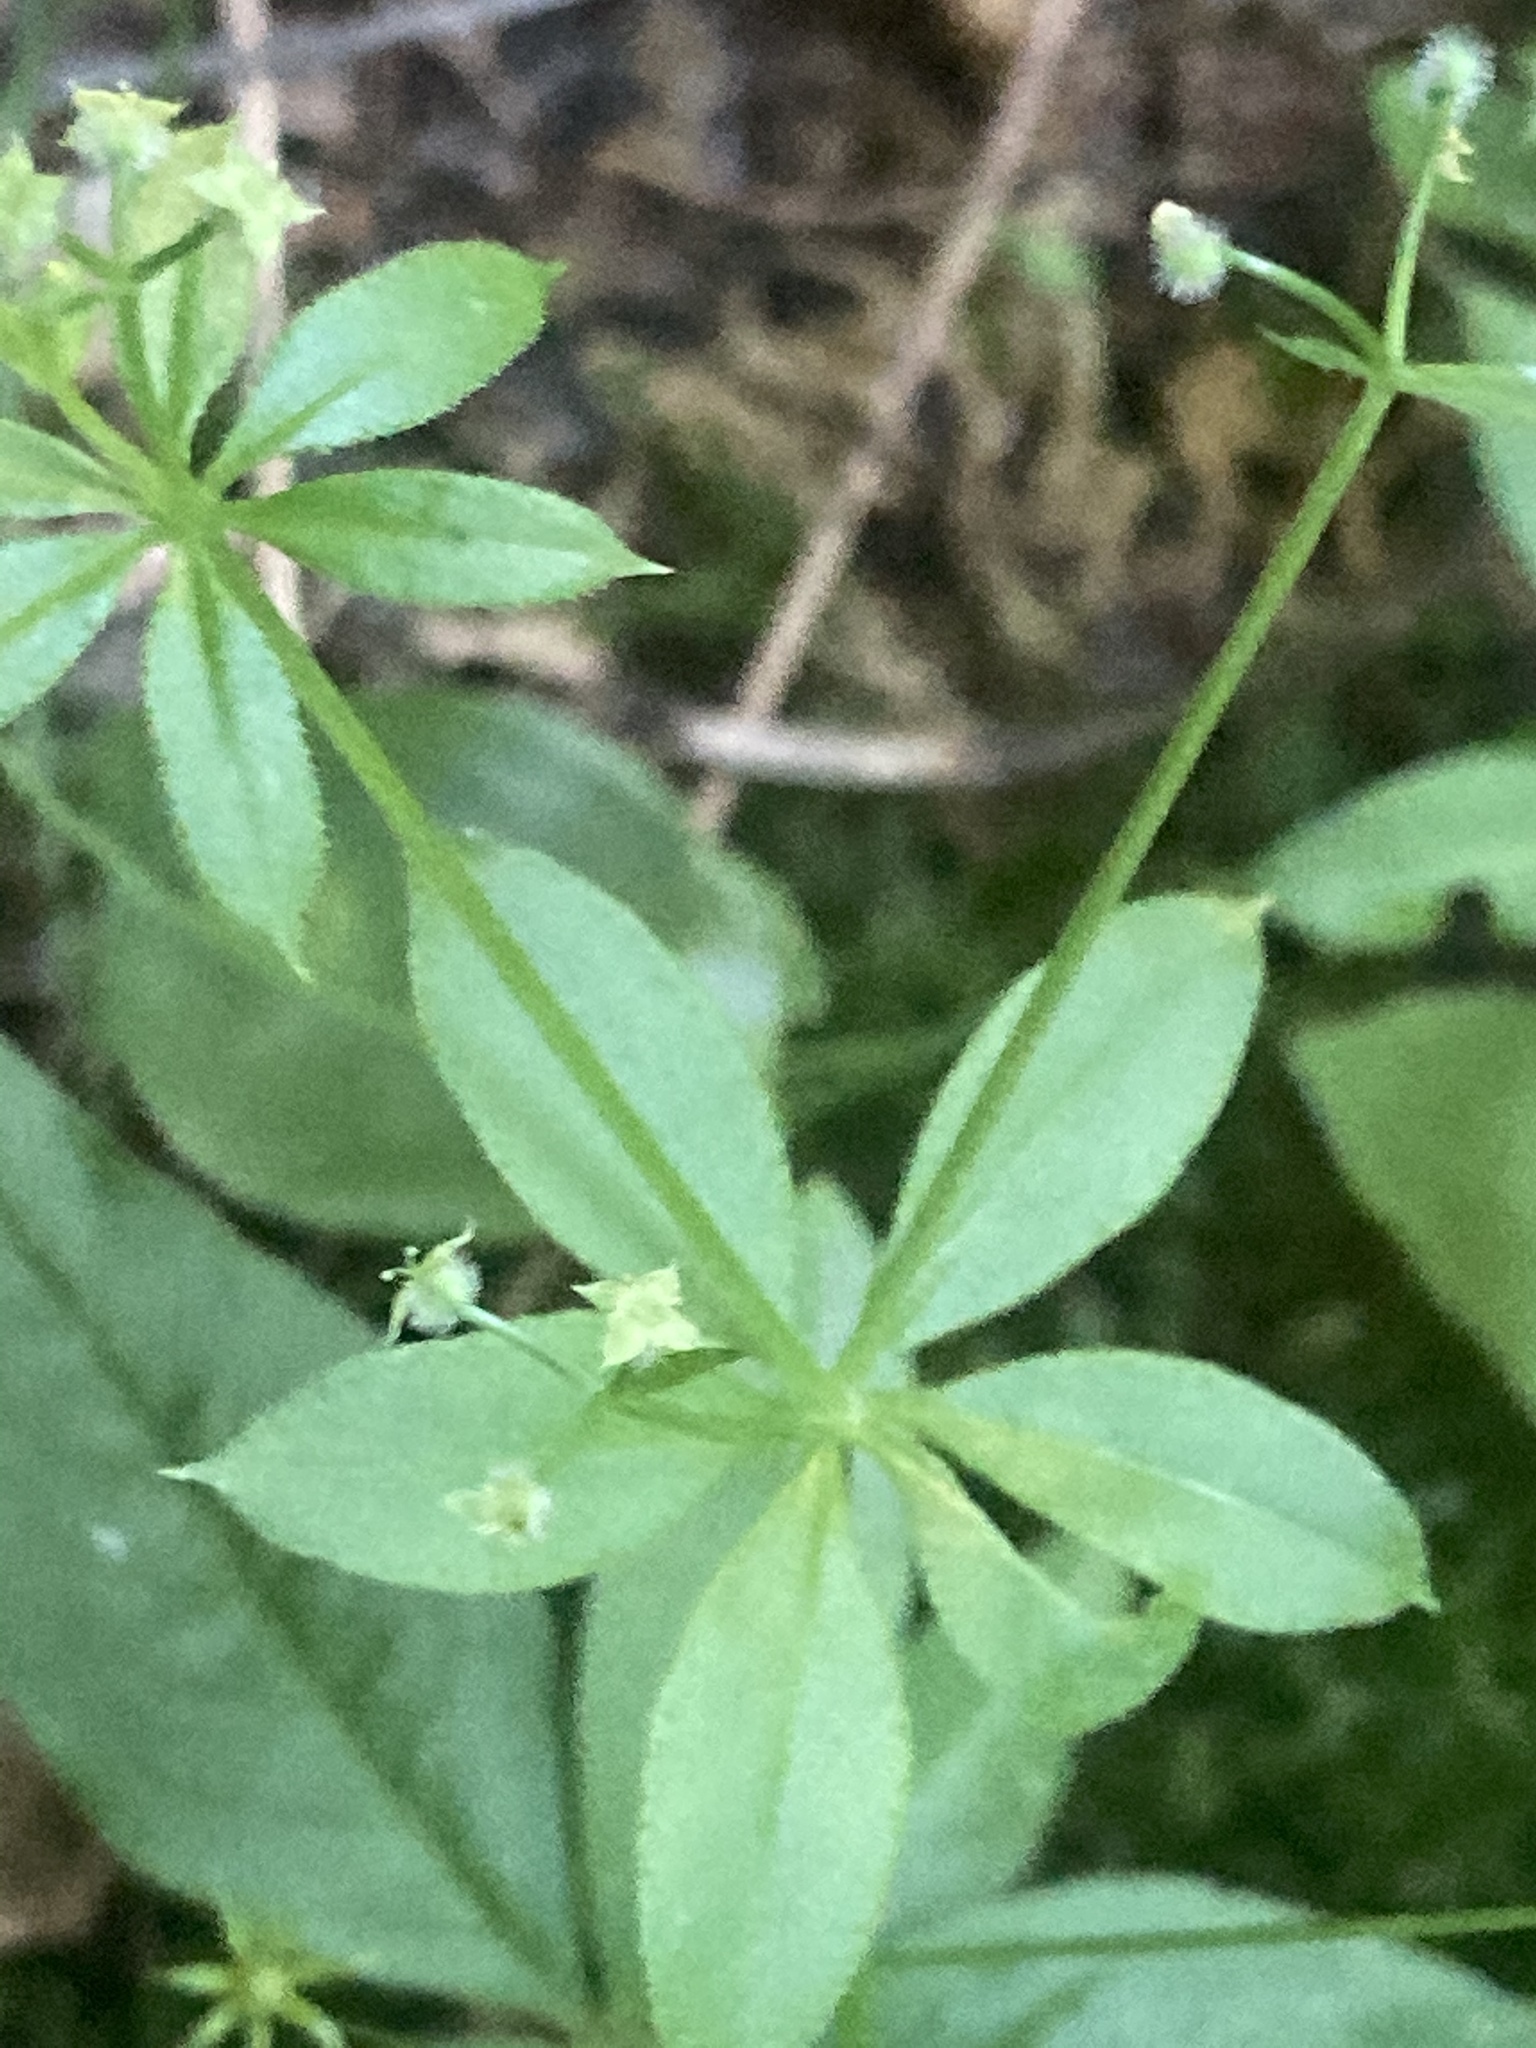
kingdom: Plantae
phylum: Tracheophyta
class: Magnoliopsida
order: Gentianales
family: Rubiaceae
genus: Galium
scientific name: Galium triflorum
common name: Fragrant bedstraw
